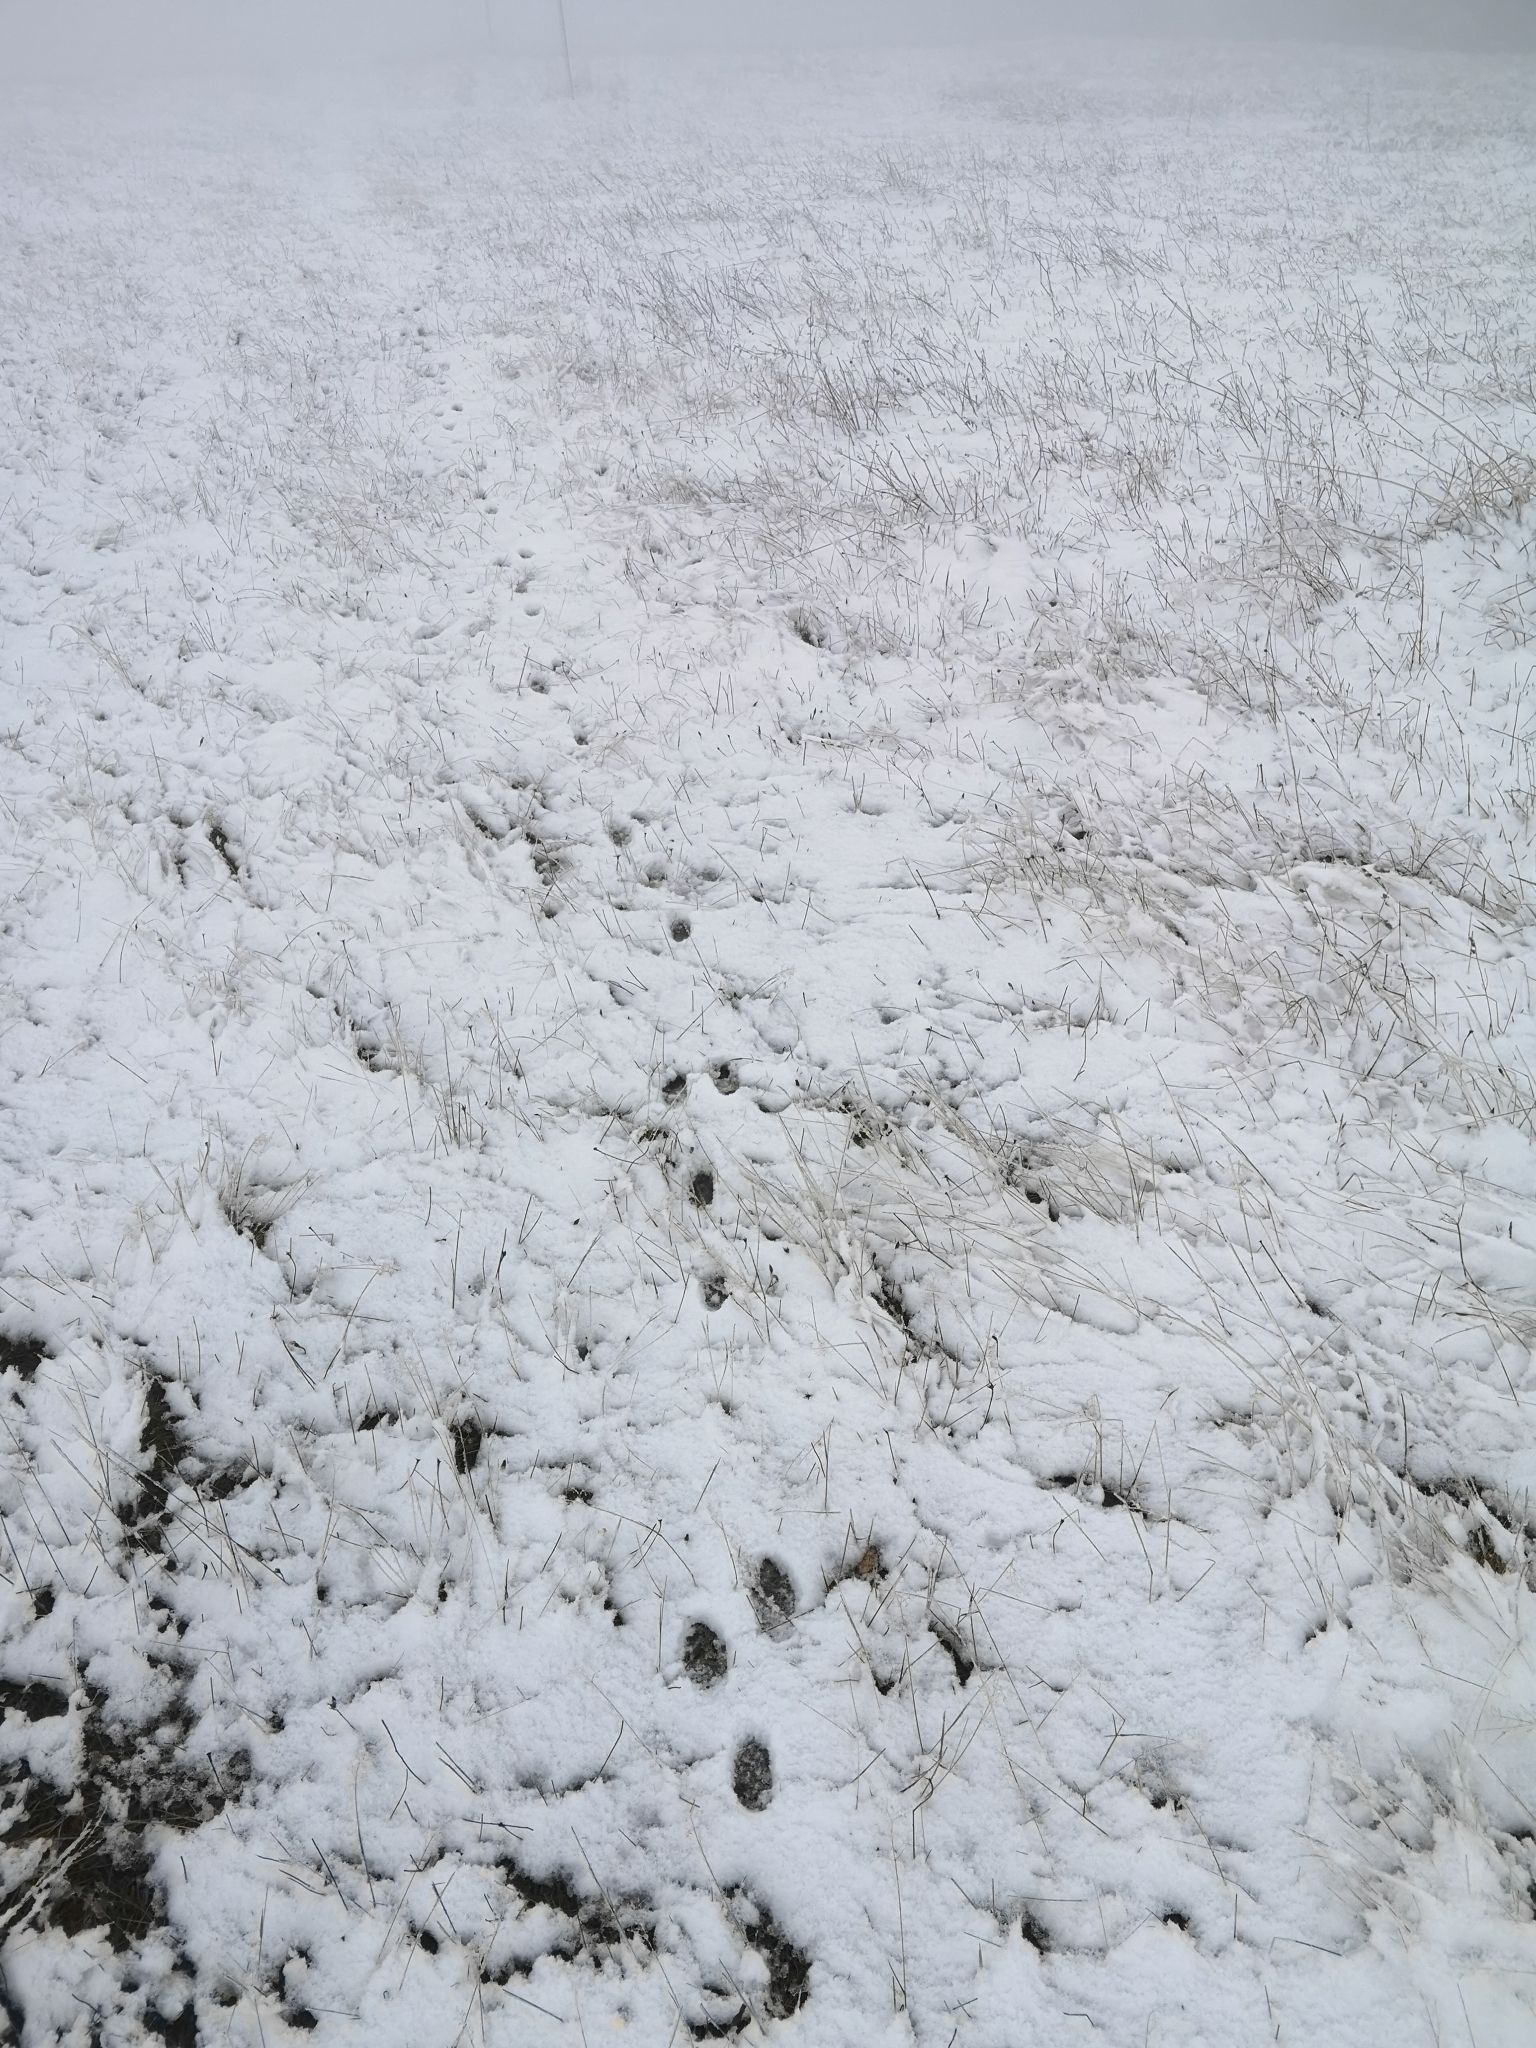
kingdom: Animalia
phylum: Chordata
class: Mammalia
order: Lagomorpha
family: Leporidae
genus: Lepus
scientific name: Lepus europaeus
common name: European hare
